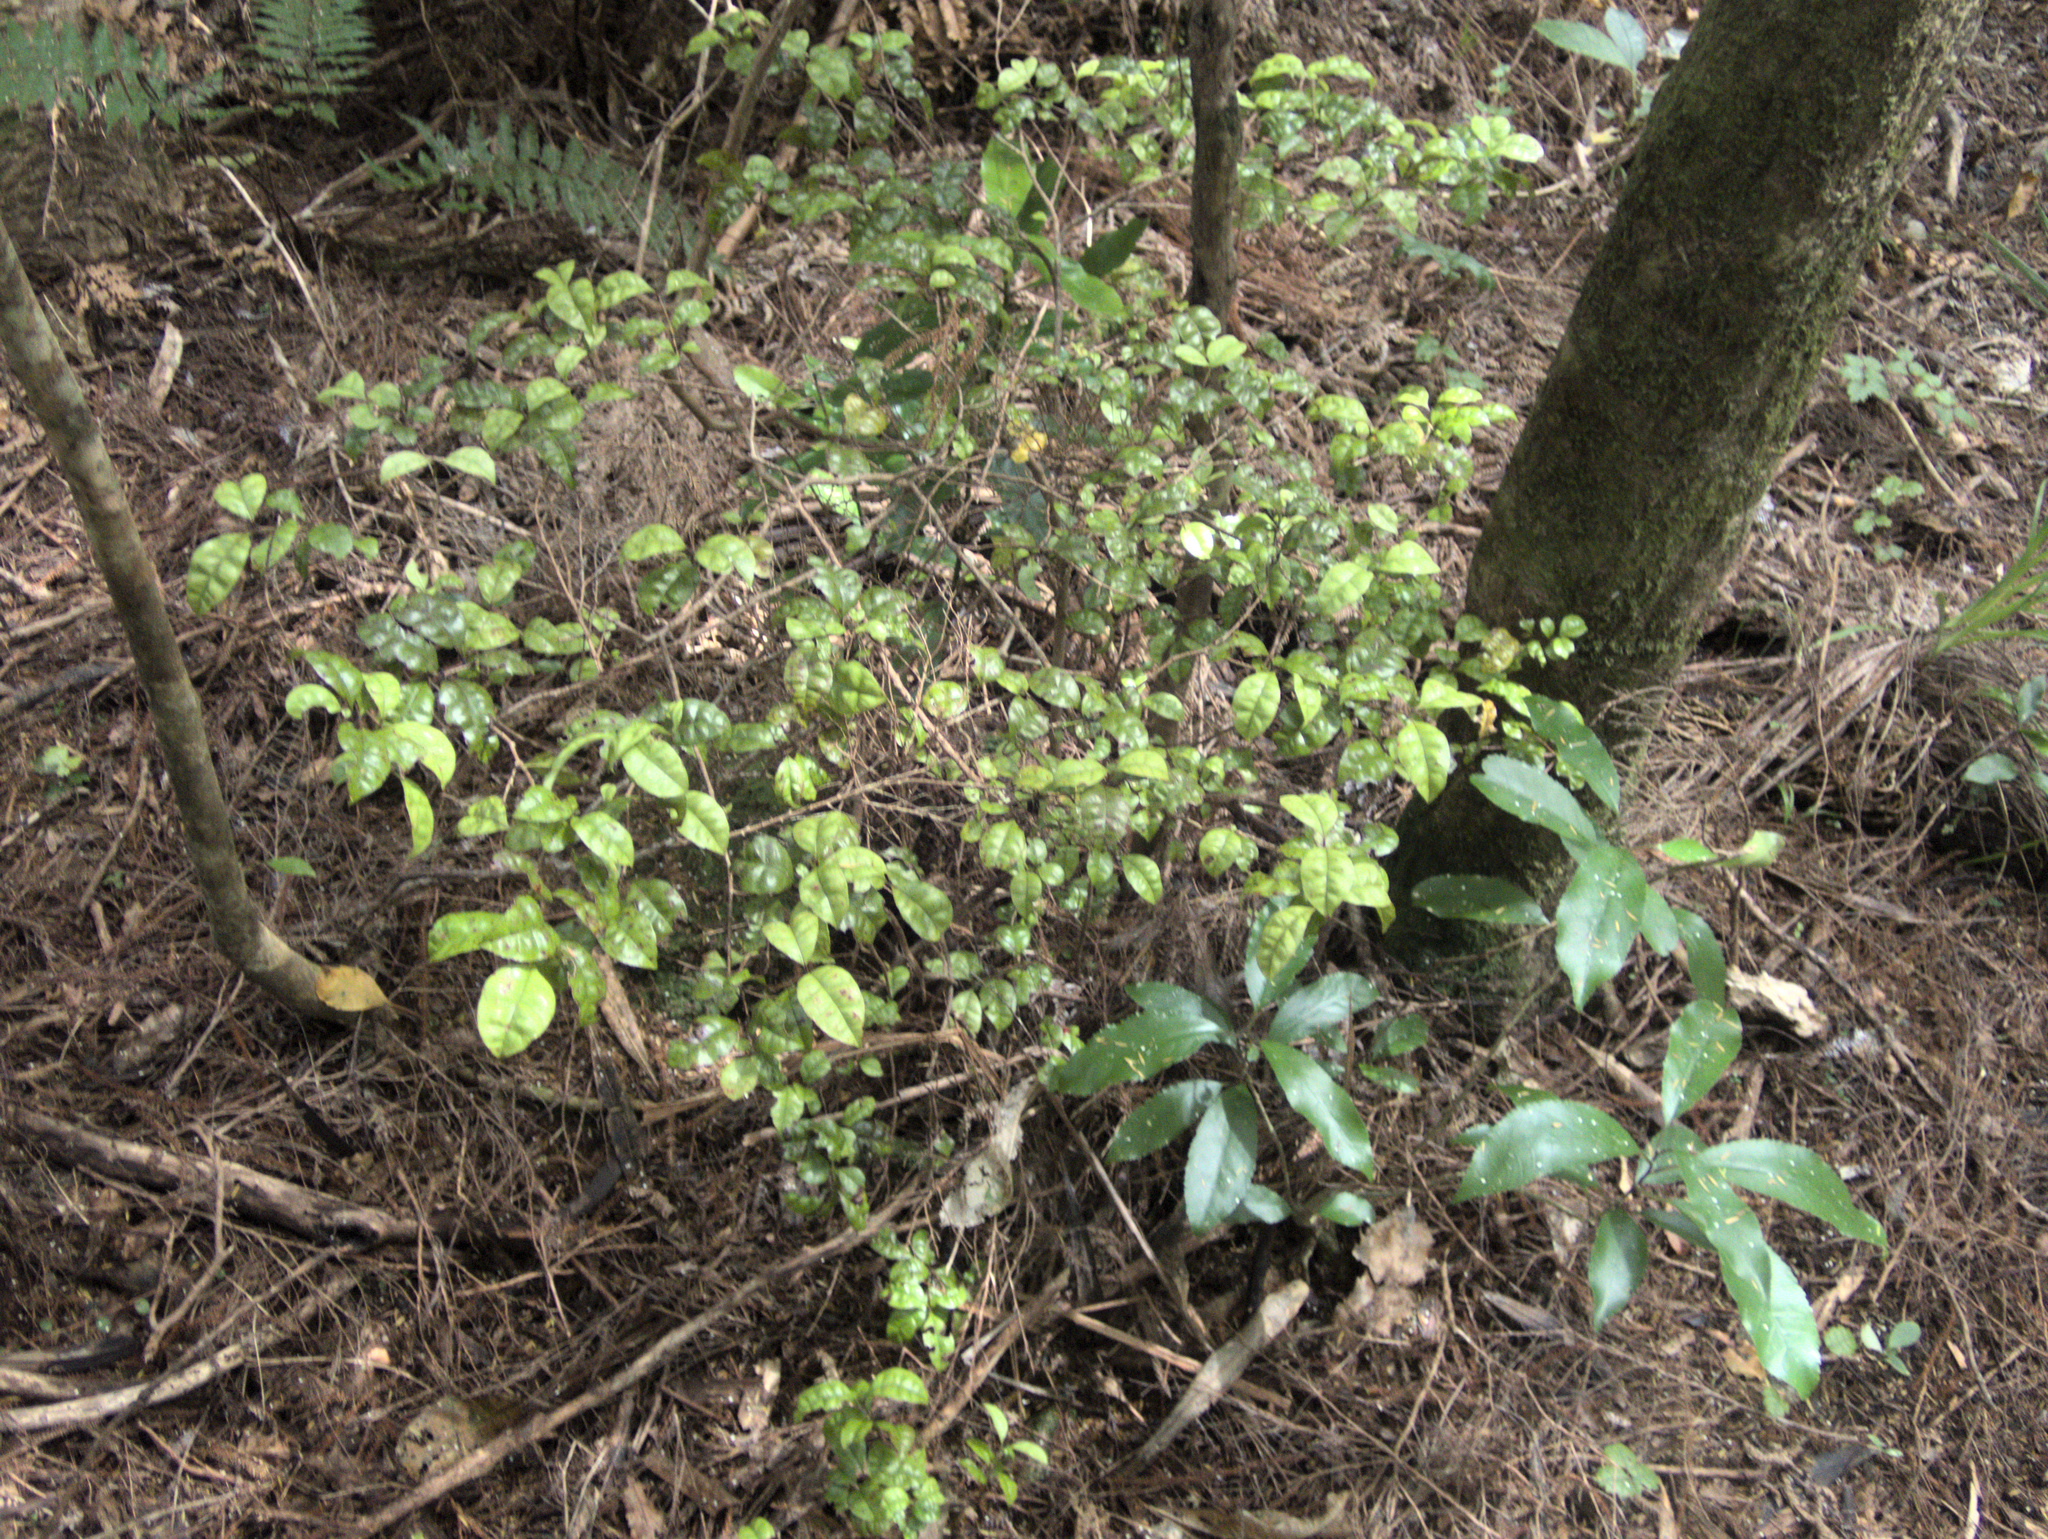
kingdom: Fungi
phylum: Basidiomycota
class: Pucciniomycetes
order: Pucciniales
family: Sphaerophragmiaceae
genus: Austropuccinia
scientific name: Austropuccinia psidii
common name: Myrtle rust
